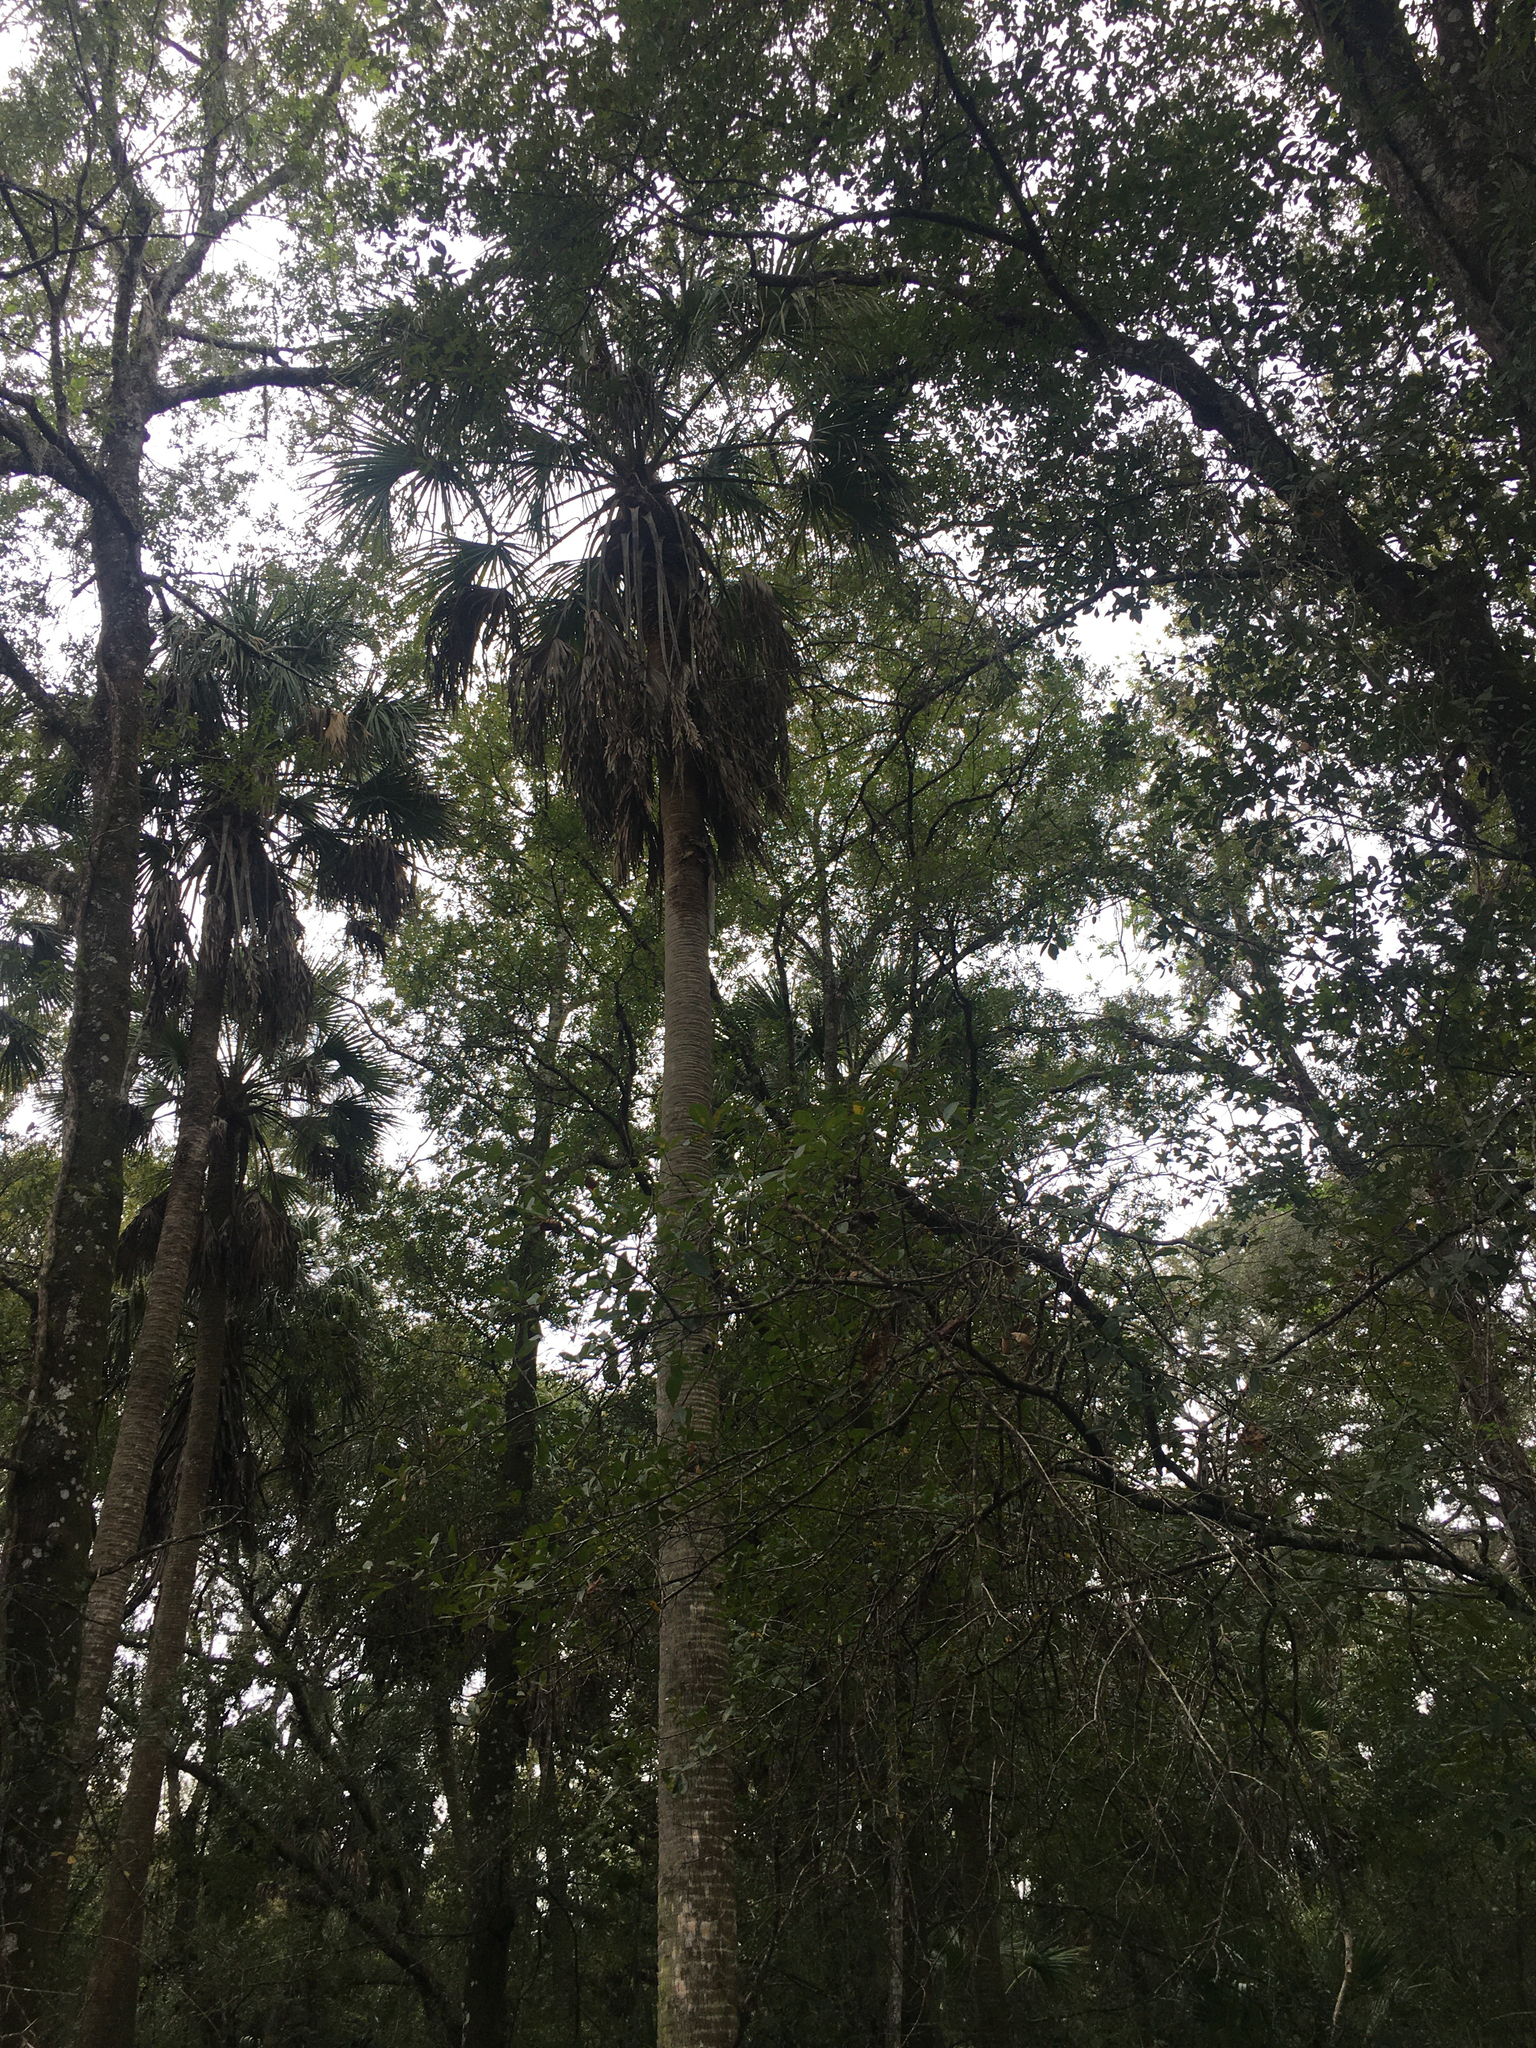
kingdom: Plantae
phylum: Tracheophyta
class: Liliopsida
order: Arecales
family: Arecaceae
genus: Sabal
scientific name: Sabal palmetto
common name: Blue palmetto
